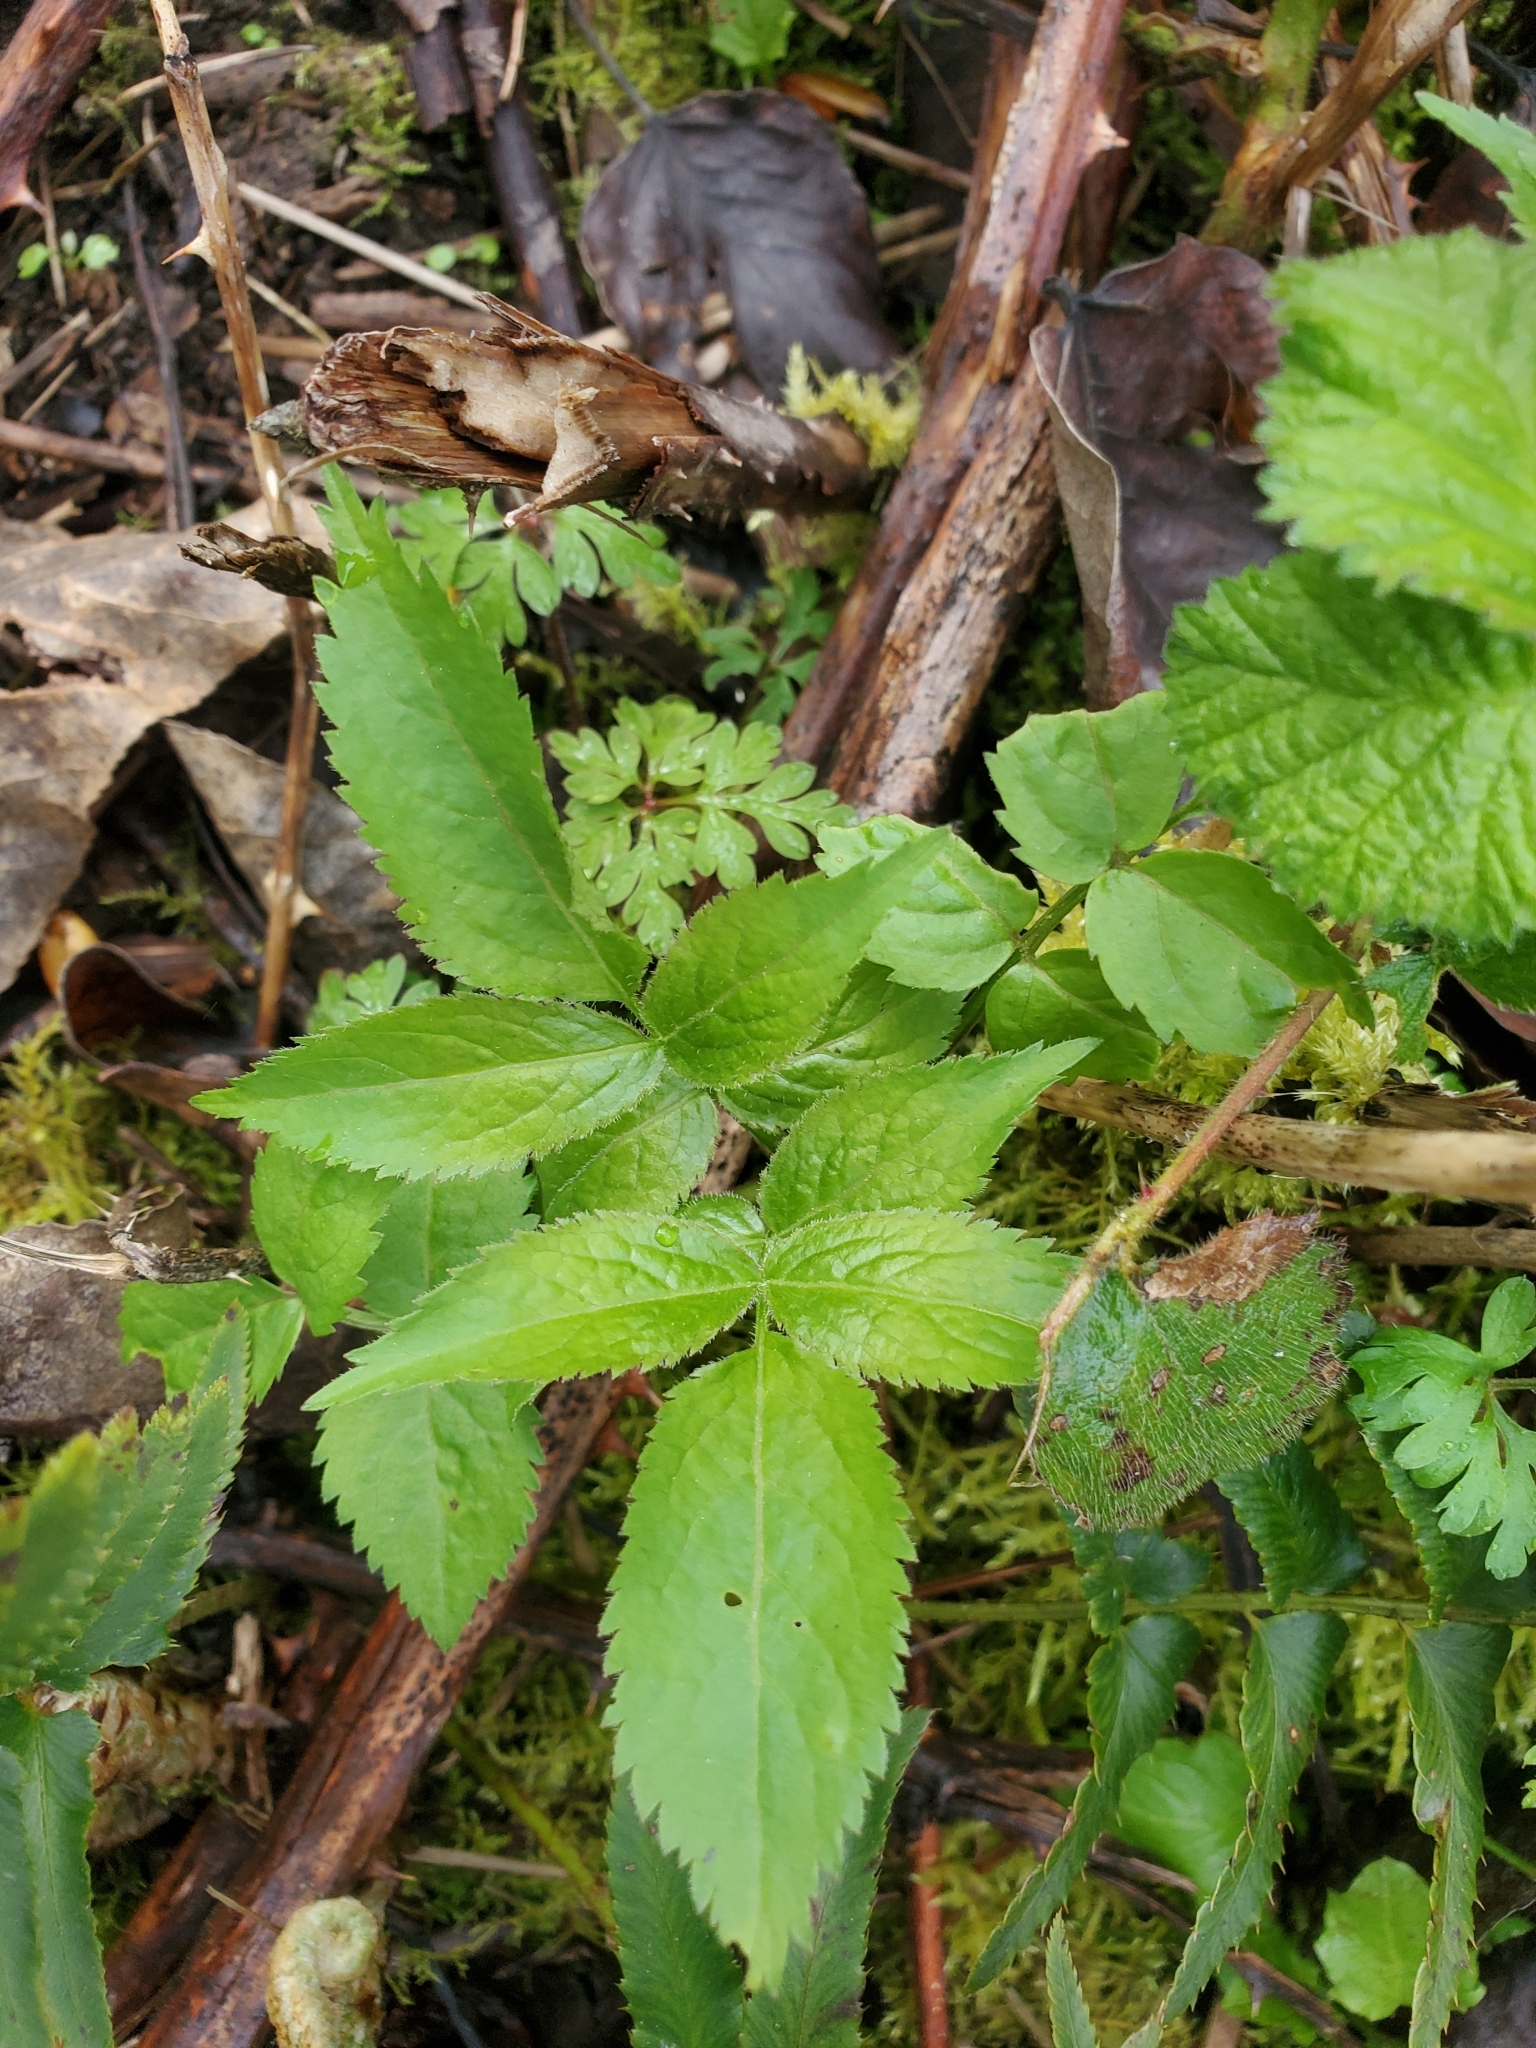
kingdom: Plantae
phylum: Tracheophyta
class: Magnoliopsida
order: Dipsacales
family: Viburnaceae
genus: Sambucus
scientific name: Sambucus racemosa
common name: Red-berried elder
